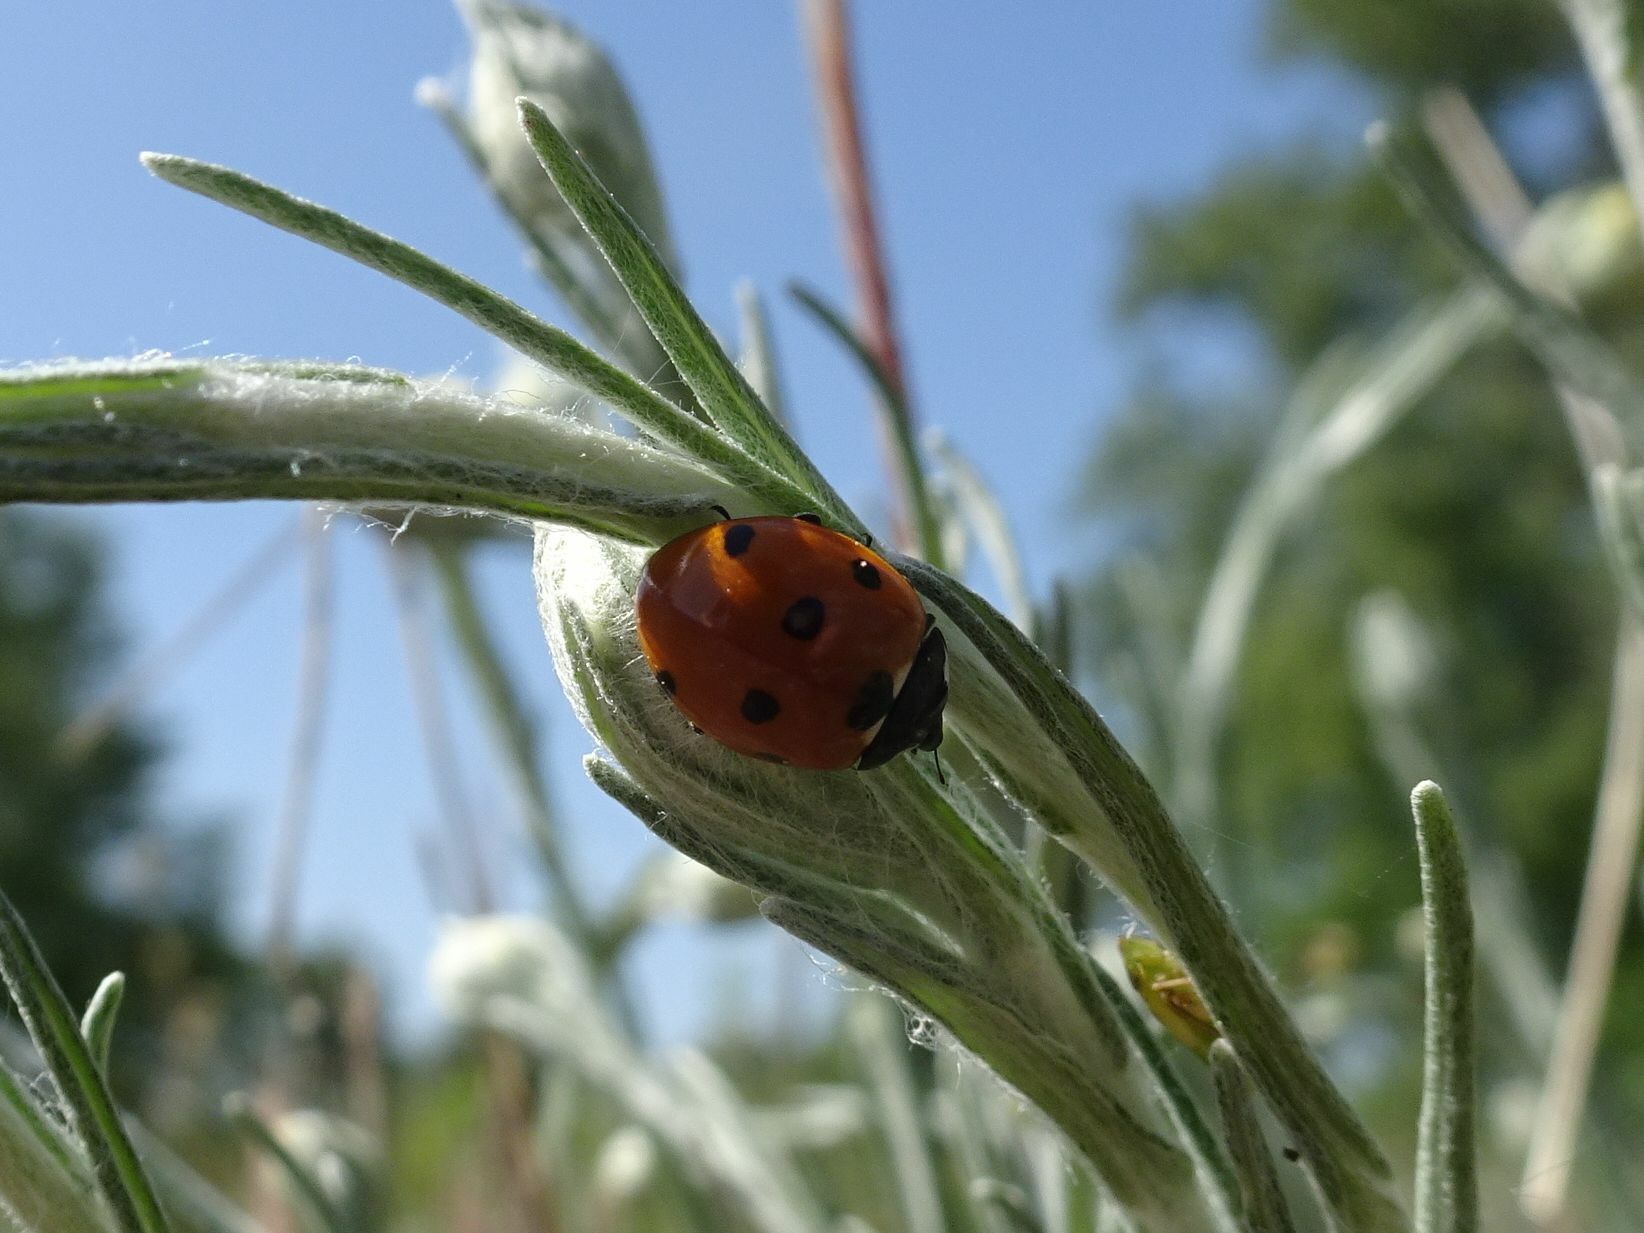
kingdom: Animalia
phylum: Arthropoda
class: Insecta
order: Coleoptera
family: Coccinellidae
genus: Coccinella
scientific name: Coccinella septempunctata
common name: Sevenspotted lady beetle
